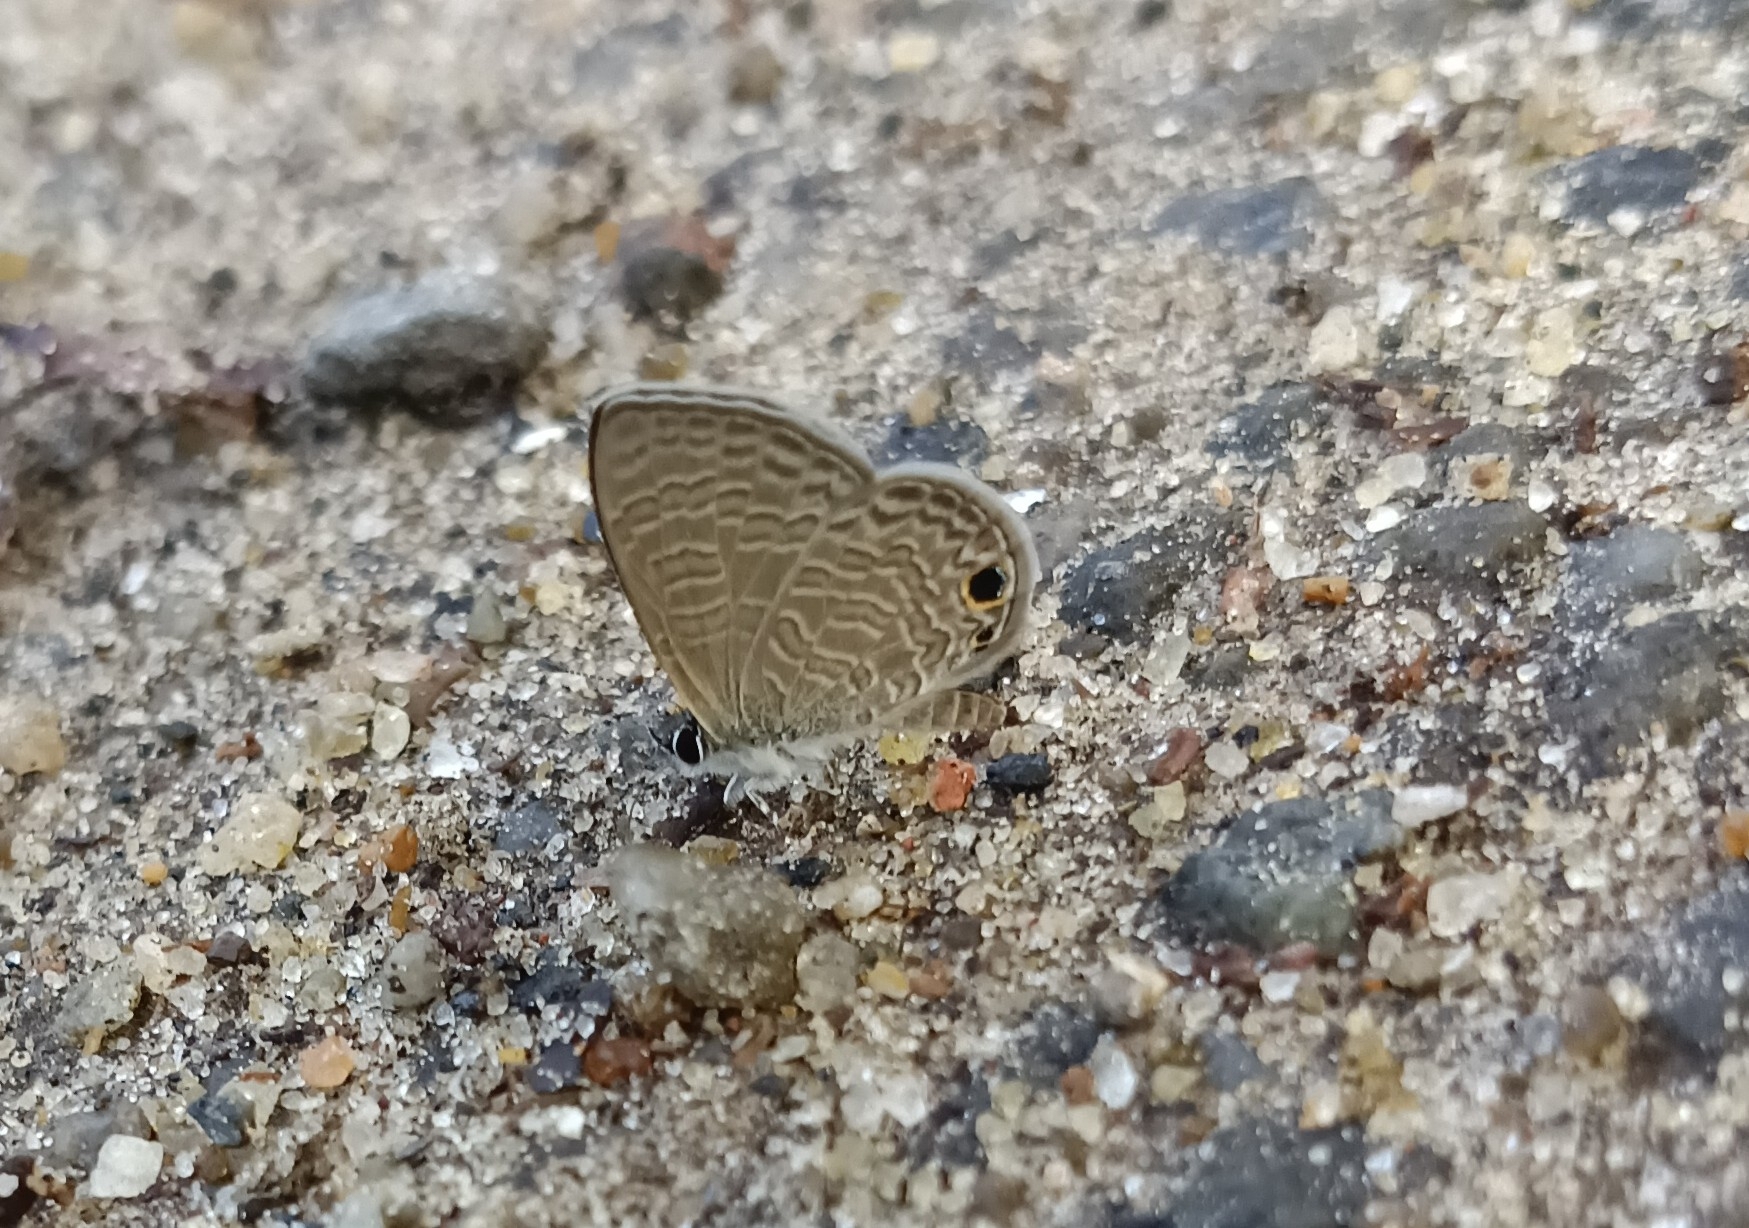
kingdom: Animalia
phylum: Arthropoda
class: Insecta
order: Lepidoptera
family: Lycaenidae
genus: Prosotas
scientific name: Prosotas dubiosa
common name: Tailless lineblue
